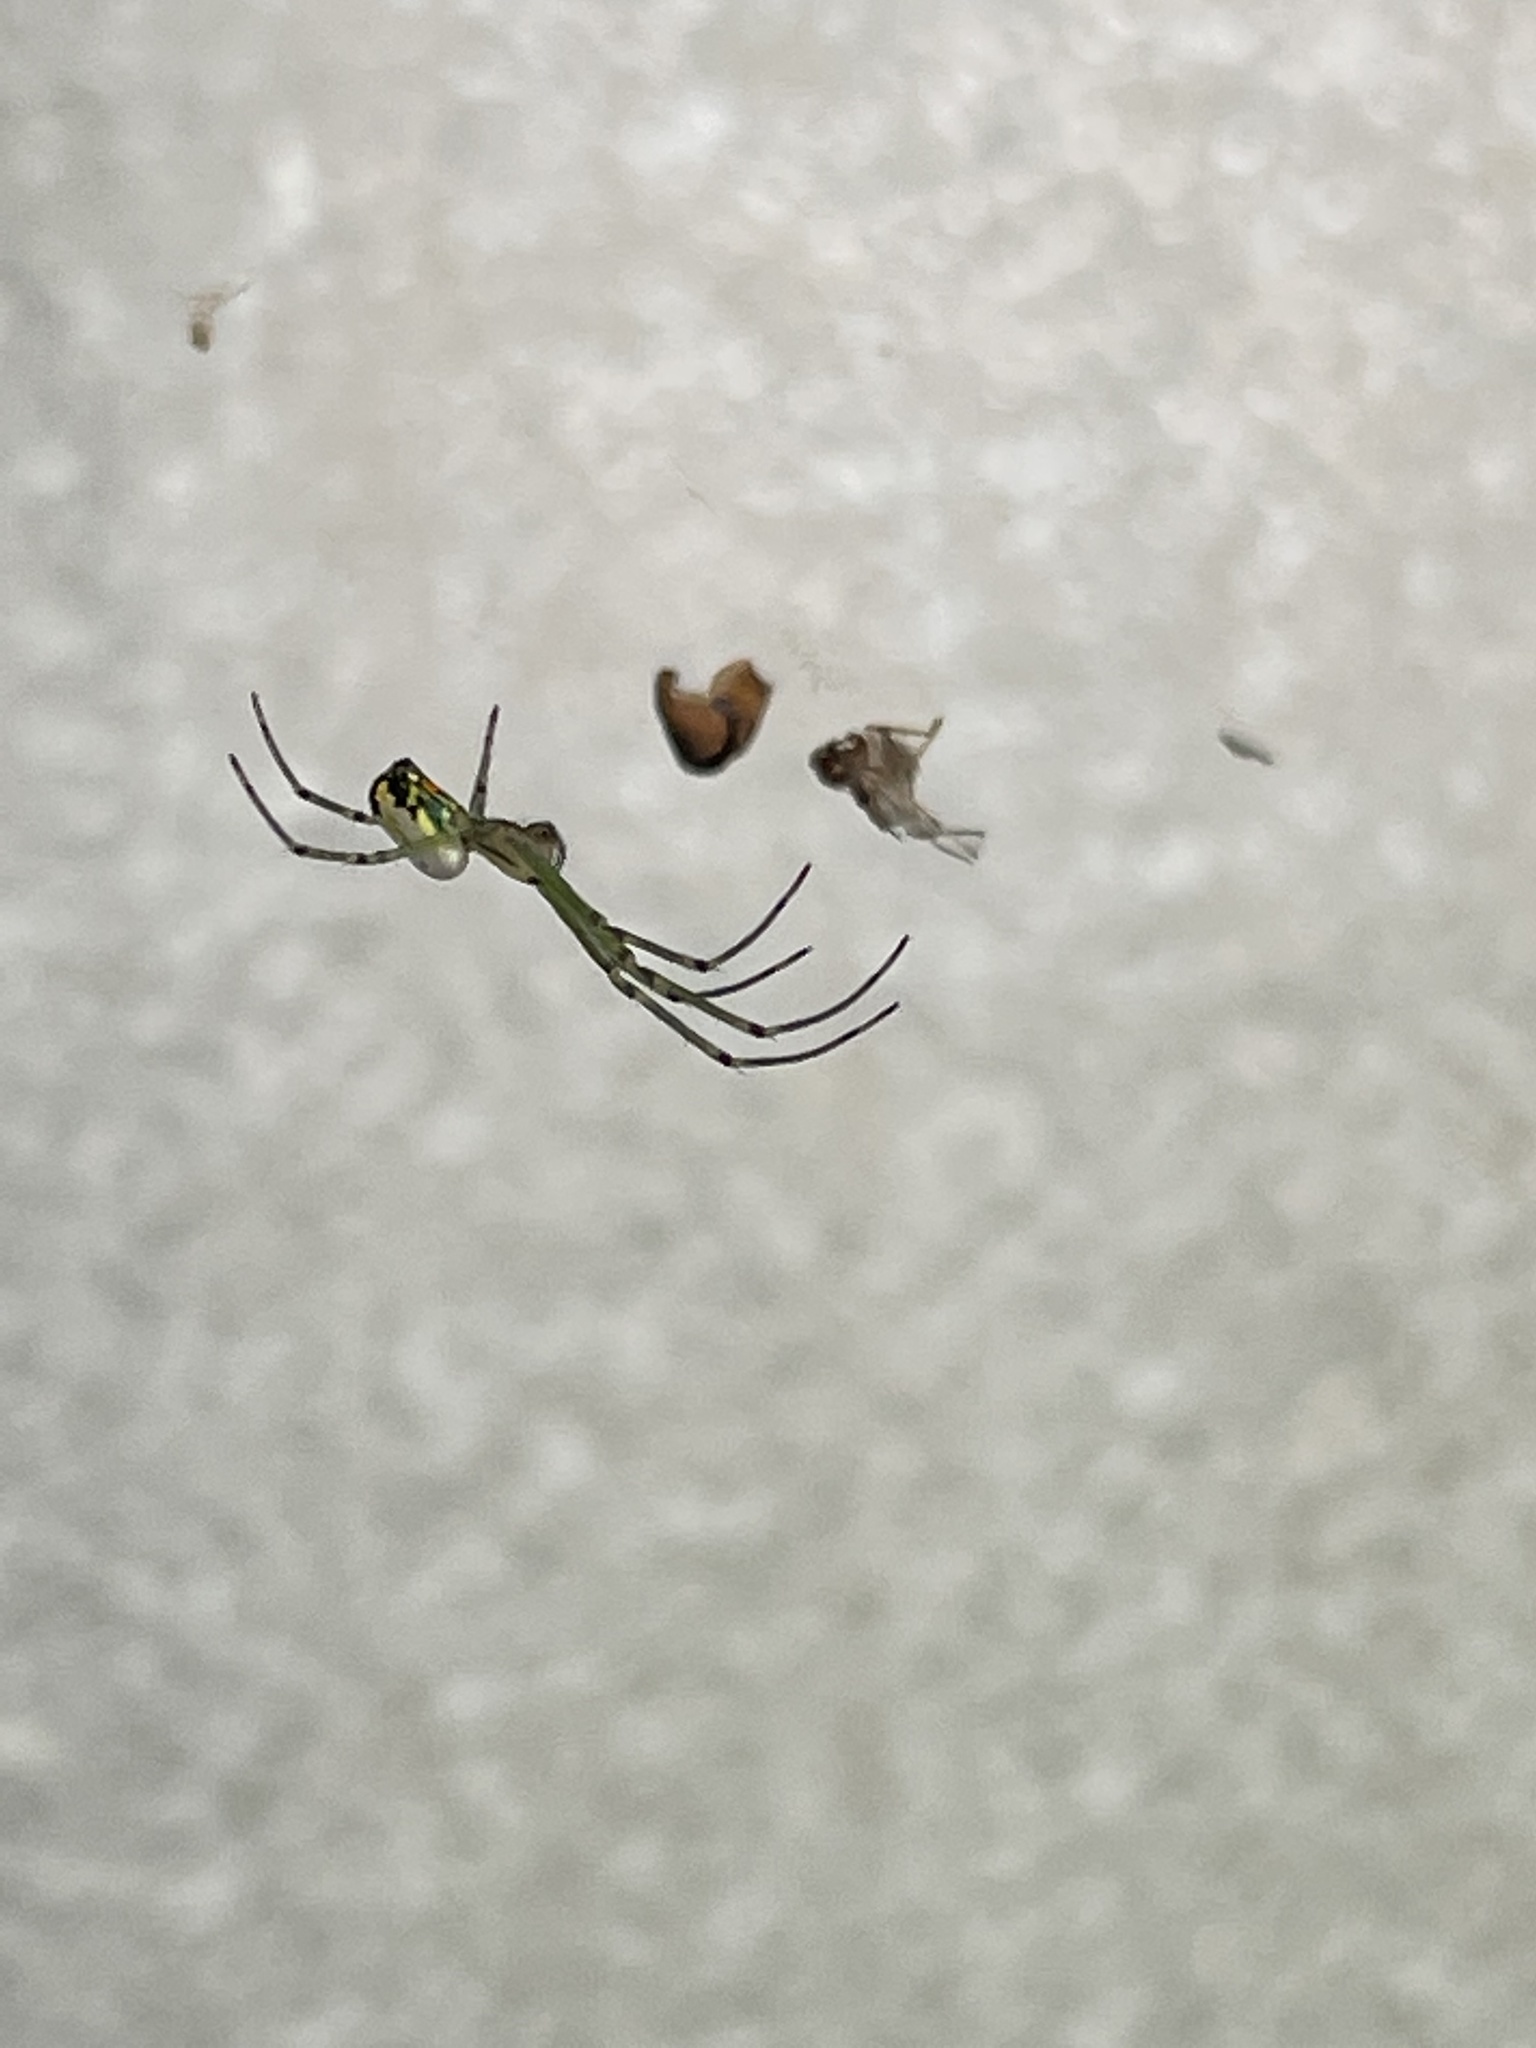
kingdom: Animalia
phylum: Arthropoda
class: Arachnida
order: Araneae
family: Tetragnathidae
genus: Leucauge
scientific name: Leucauge venusta
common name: Longjawed orb weavers
